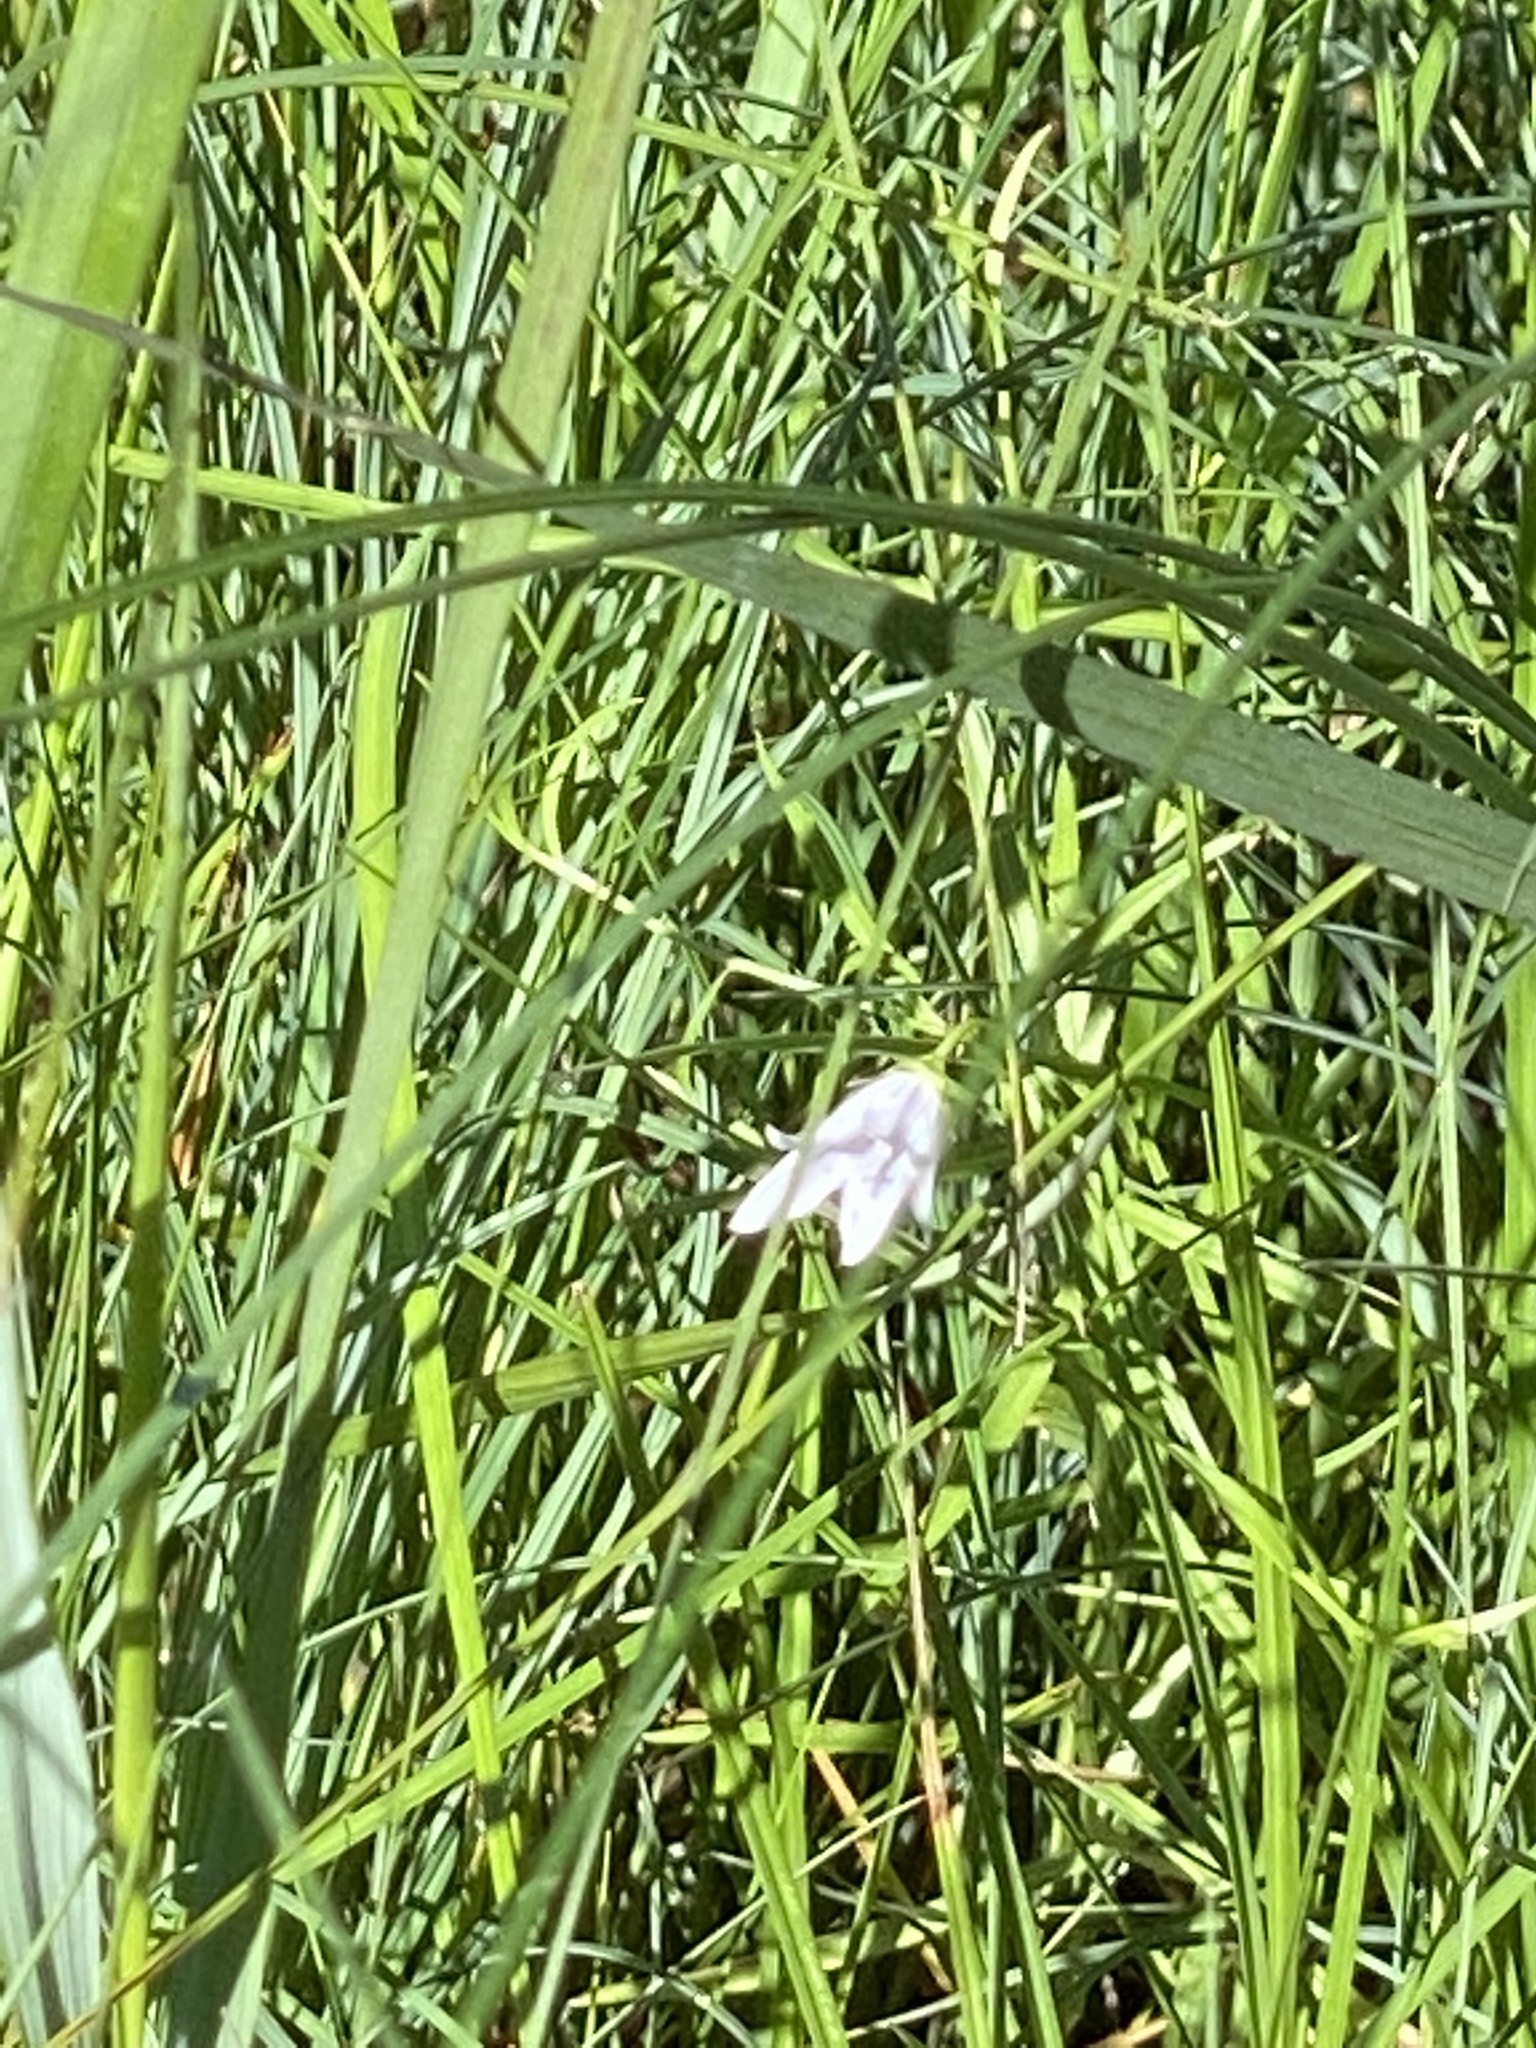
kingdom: Plantae
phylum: Tracheophyta
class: Magnoliopsida
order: Asterales
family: Campanulaceae
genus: Palustricodon
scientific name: Palustricodon aparinoides
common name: Bedstraw bellflower
